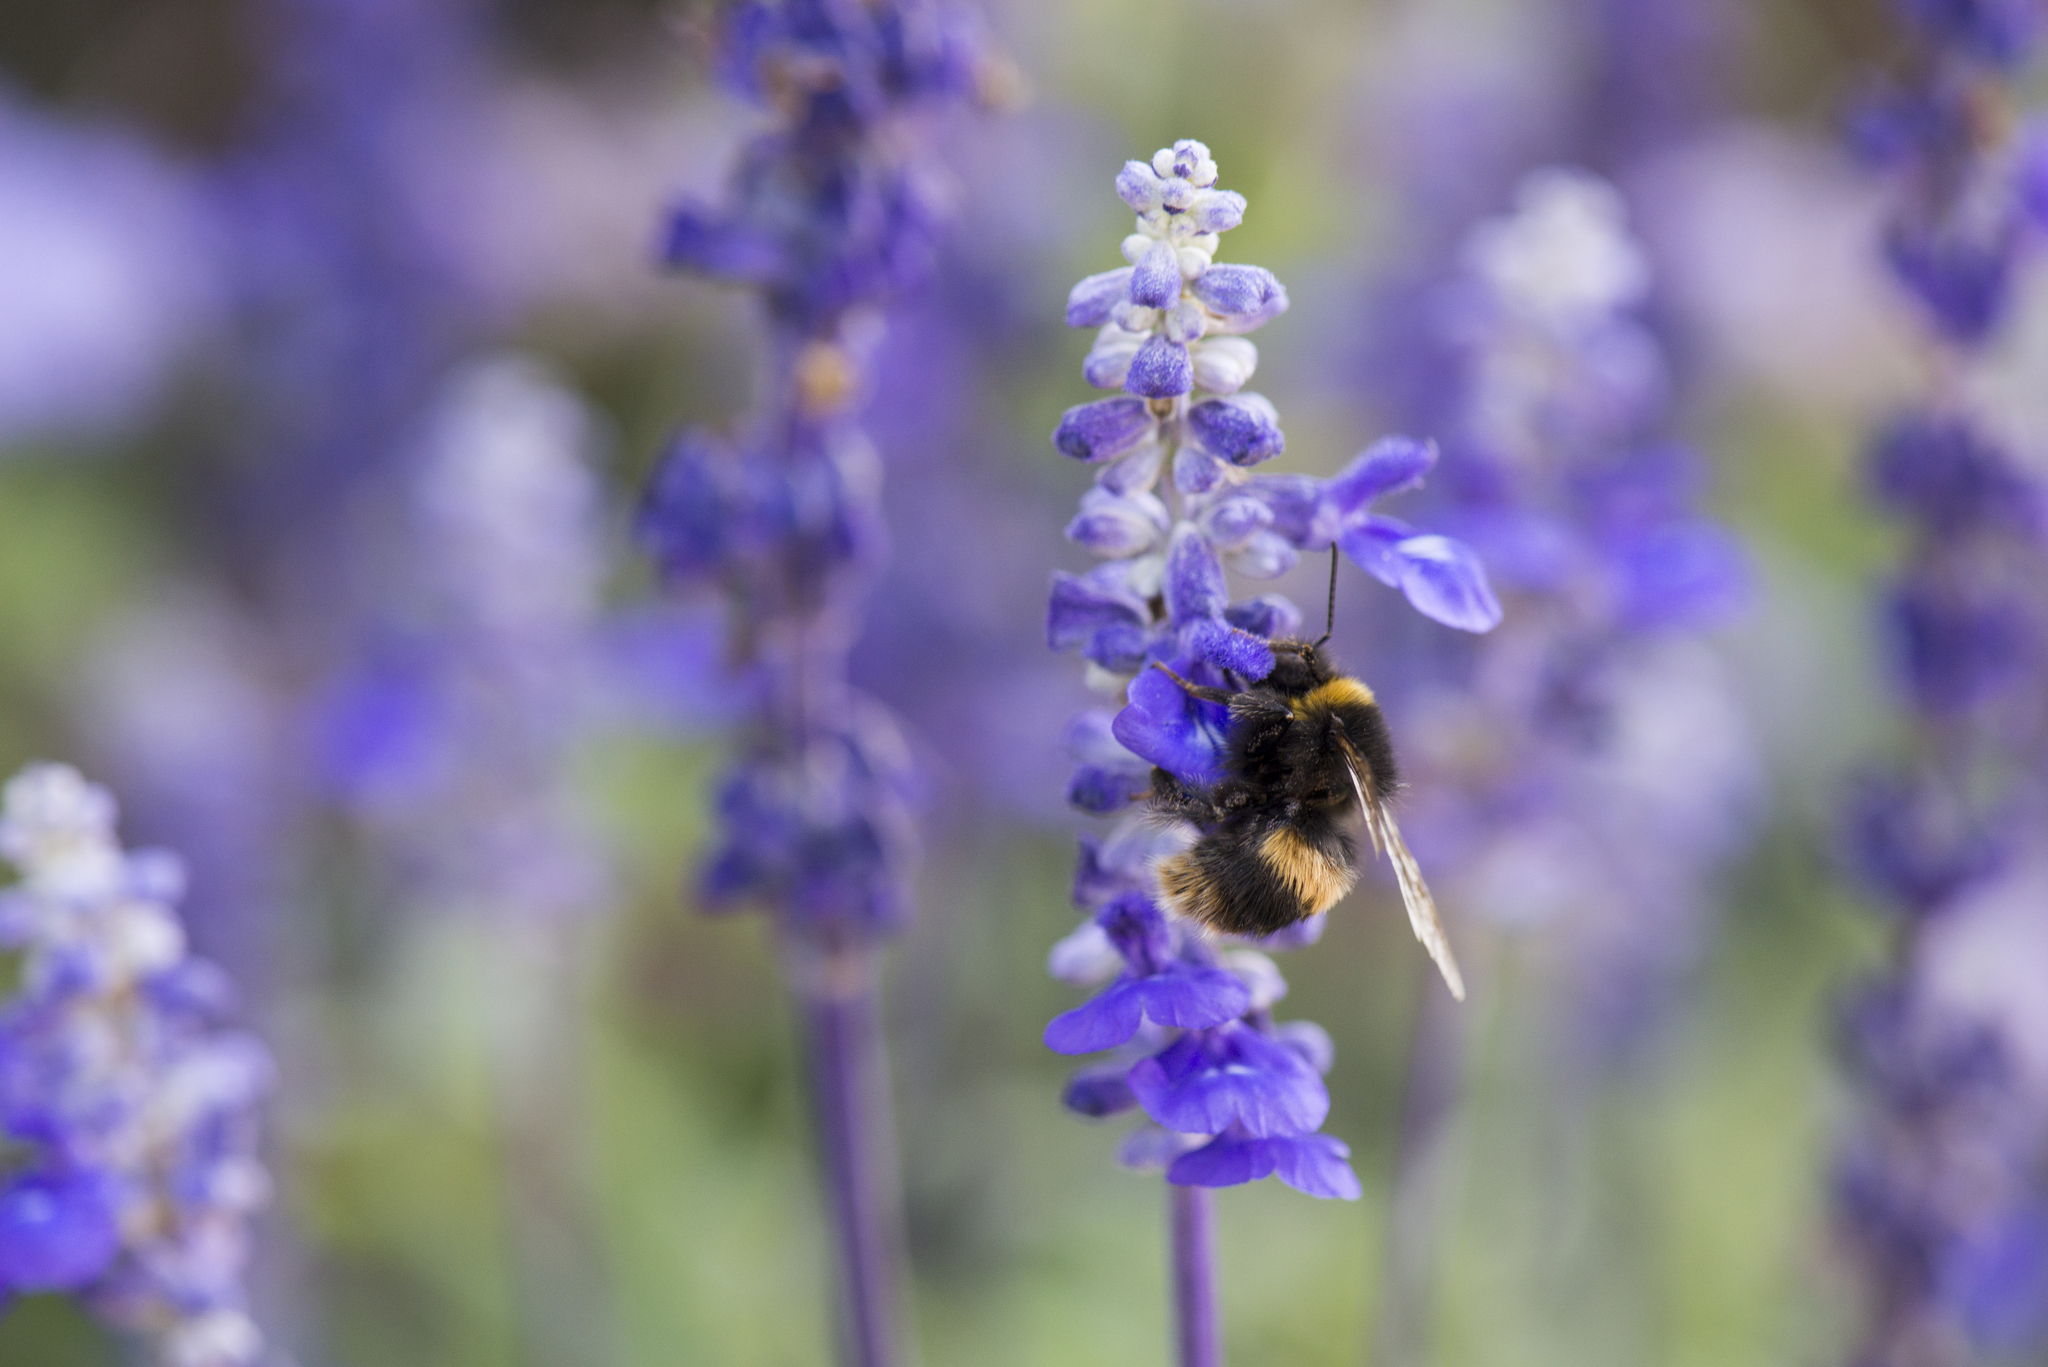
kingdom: Animalia
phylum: Arthropoda
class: Insecta
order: Hymenoptera
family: Apidae
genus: Bombus
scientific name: Bombus terrestris
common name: Buff-tailed bumblebee
